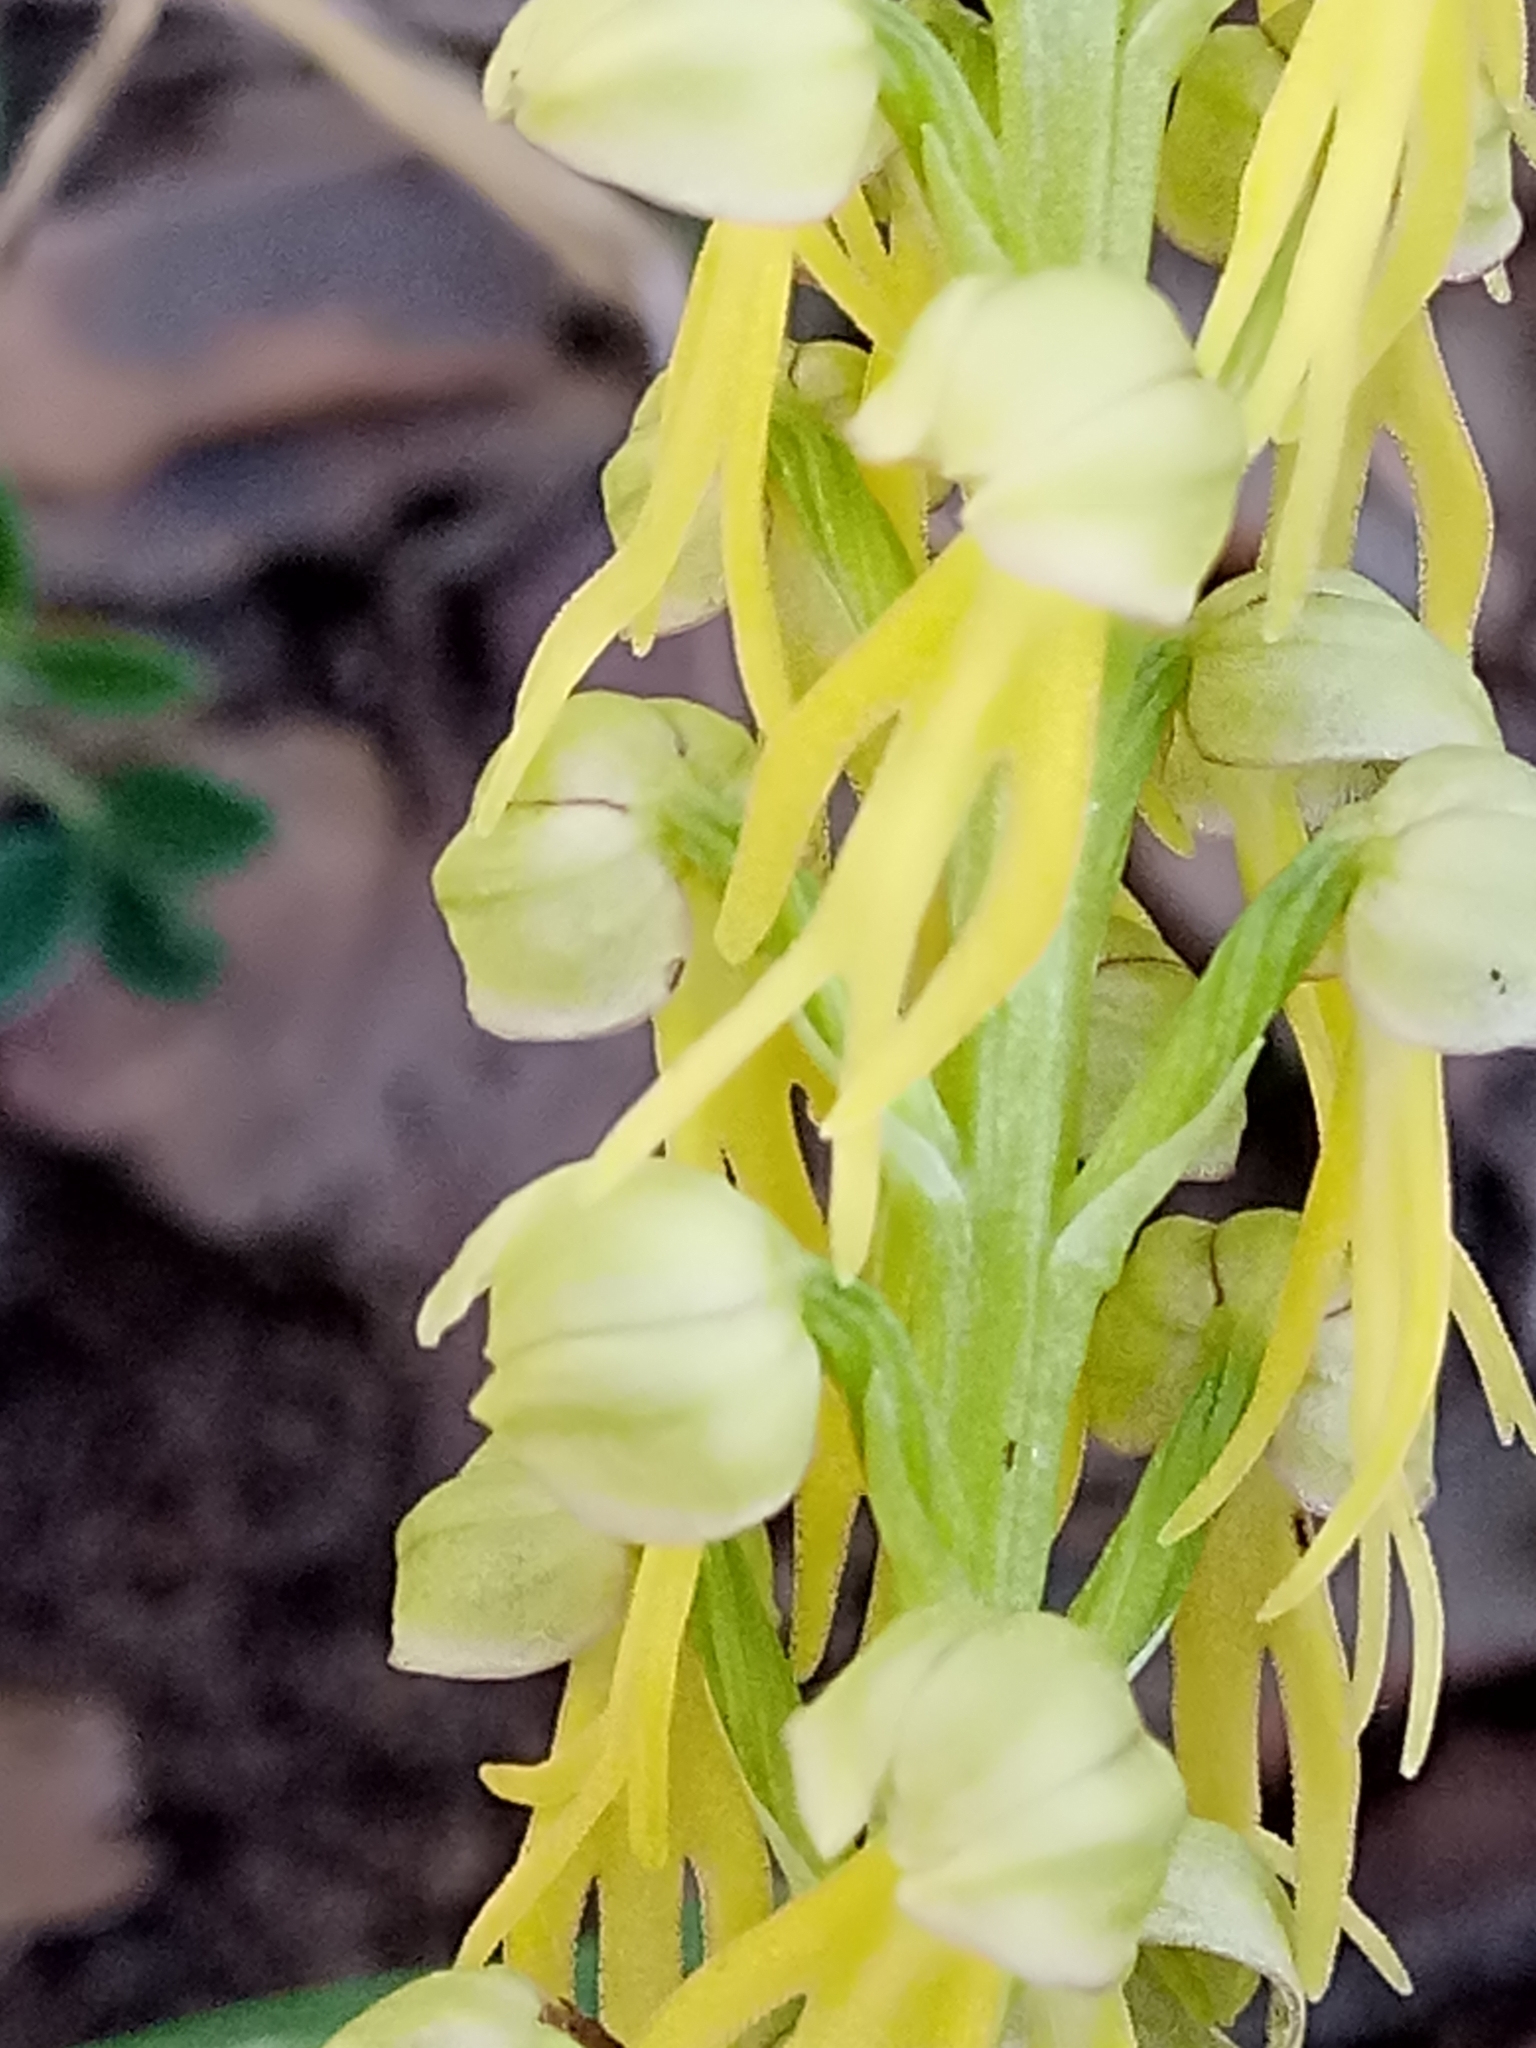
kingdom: Plantae
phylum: Tracheophyta
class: Liliopsida
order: Asparagales
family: Orchidaceae
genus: Orchis
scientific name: Orchis anthropophora
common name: Man orchid
